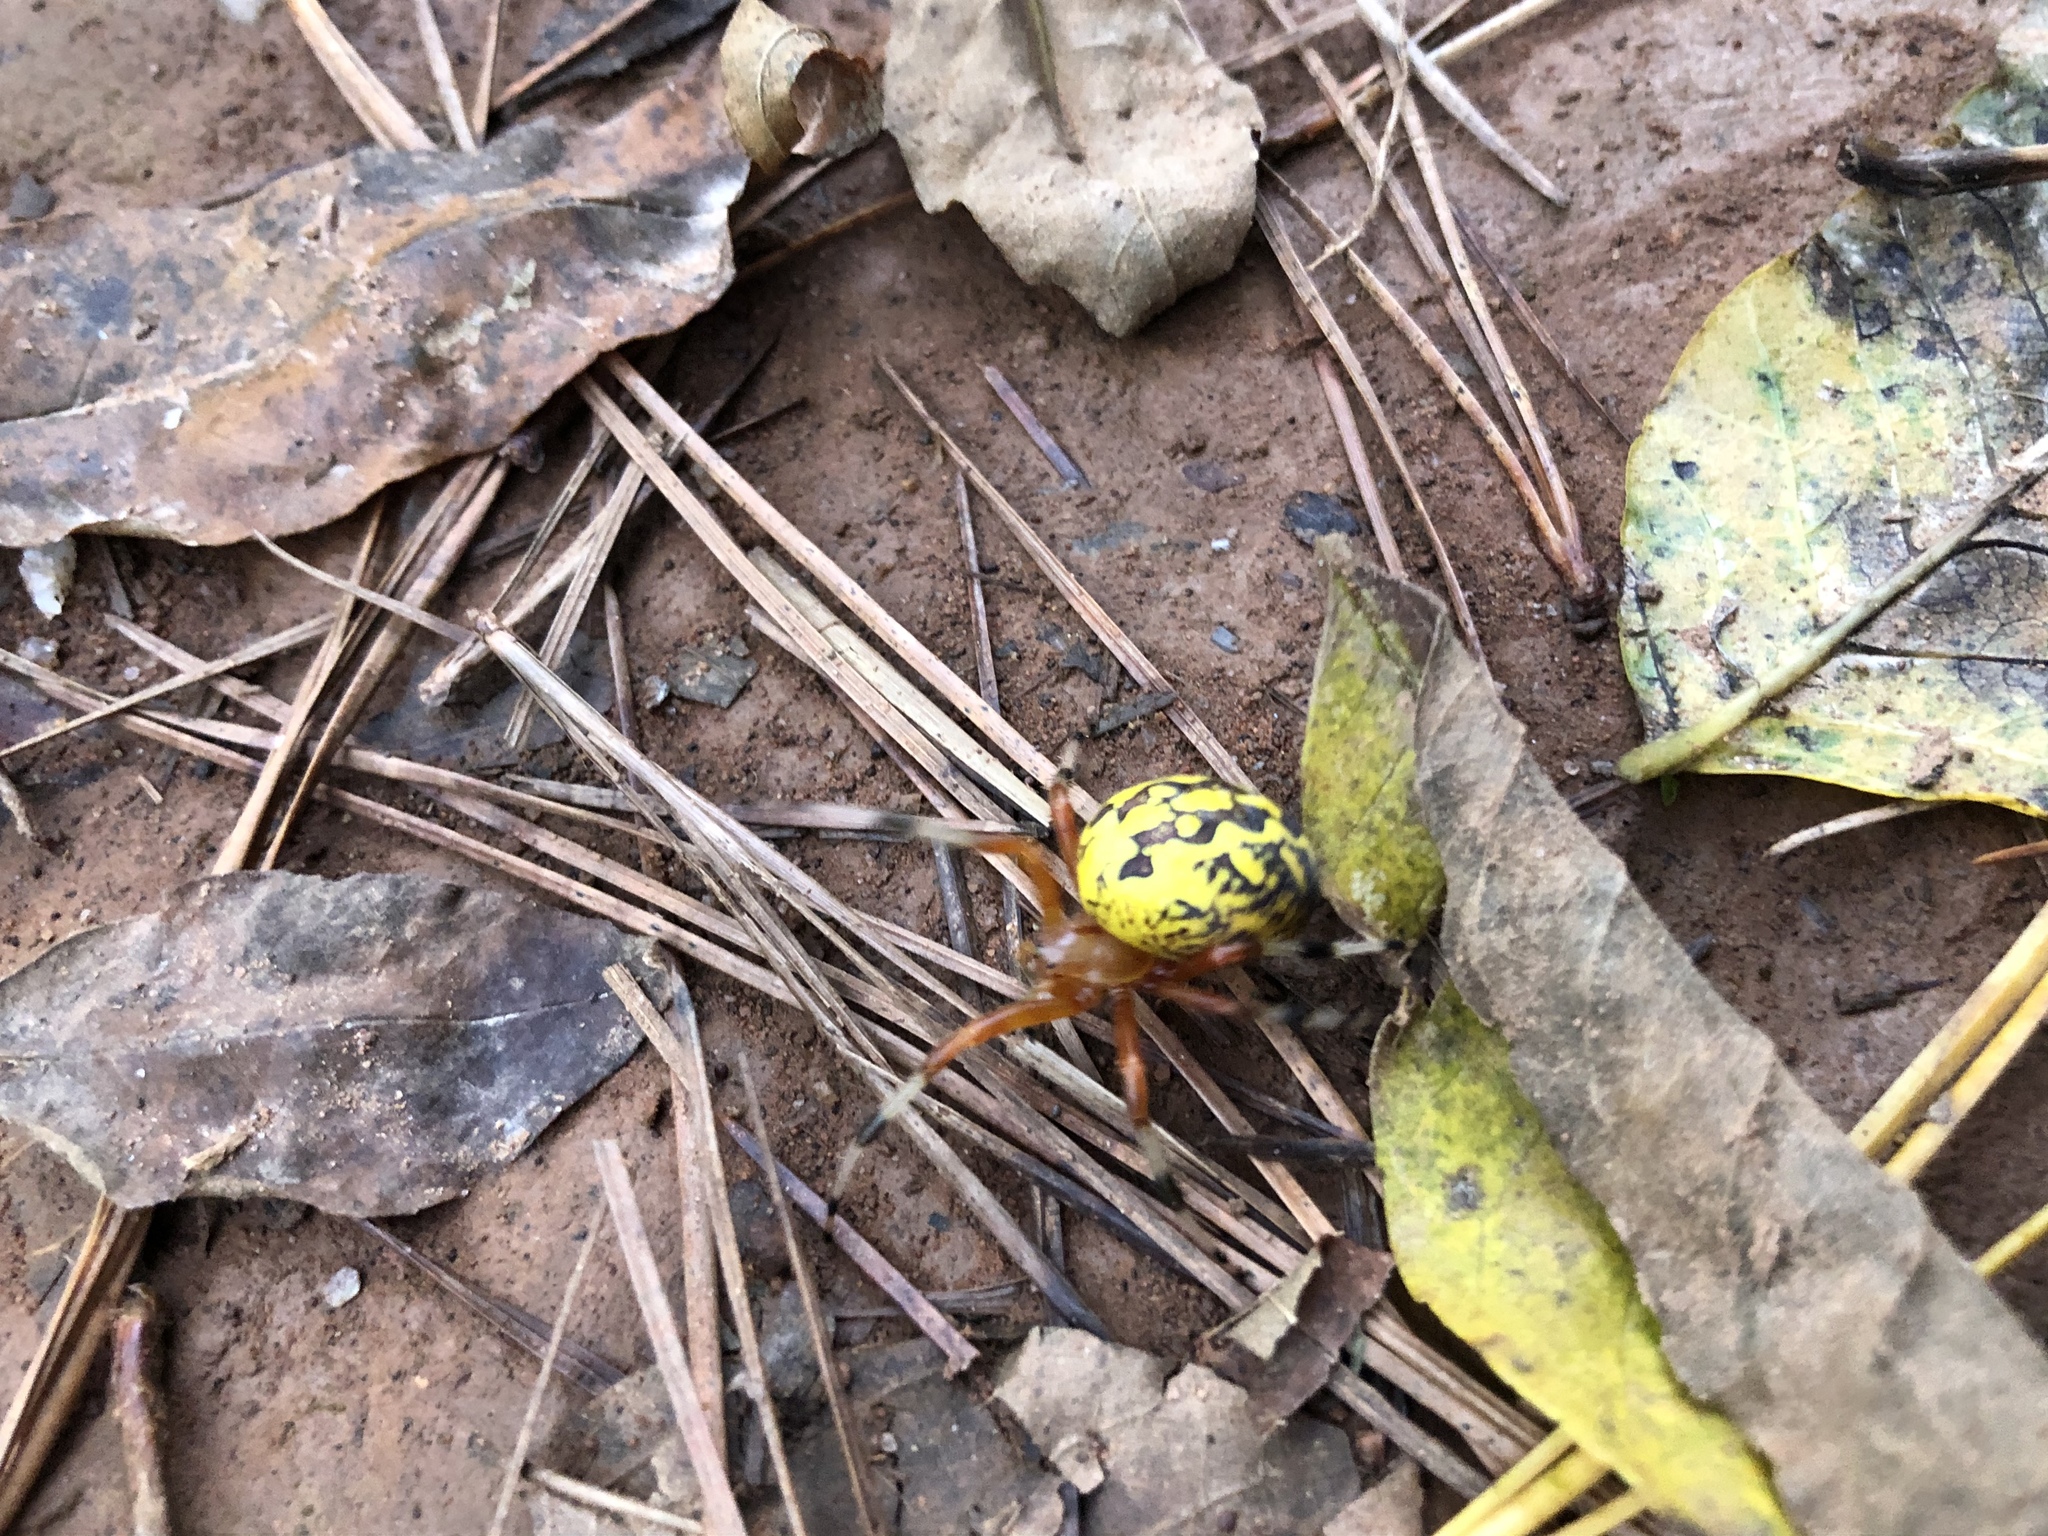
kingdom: Animalia
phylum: Arthropoda
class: Arachnida
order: Araneae
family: Araneidae
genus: Araneus
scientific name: Araneus marmoreus
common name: Marbled orbweaver
